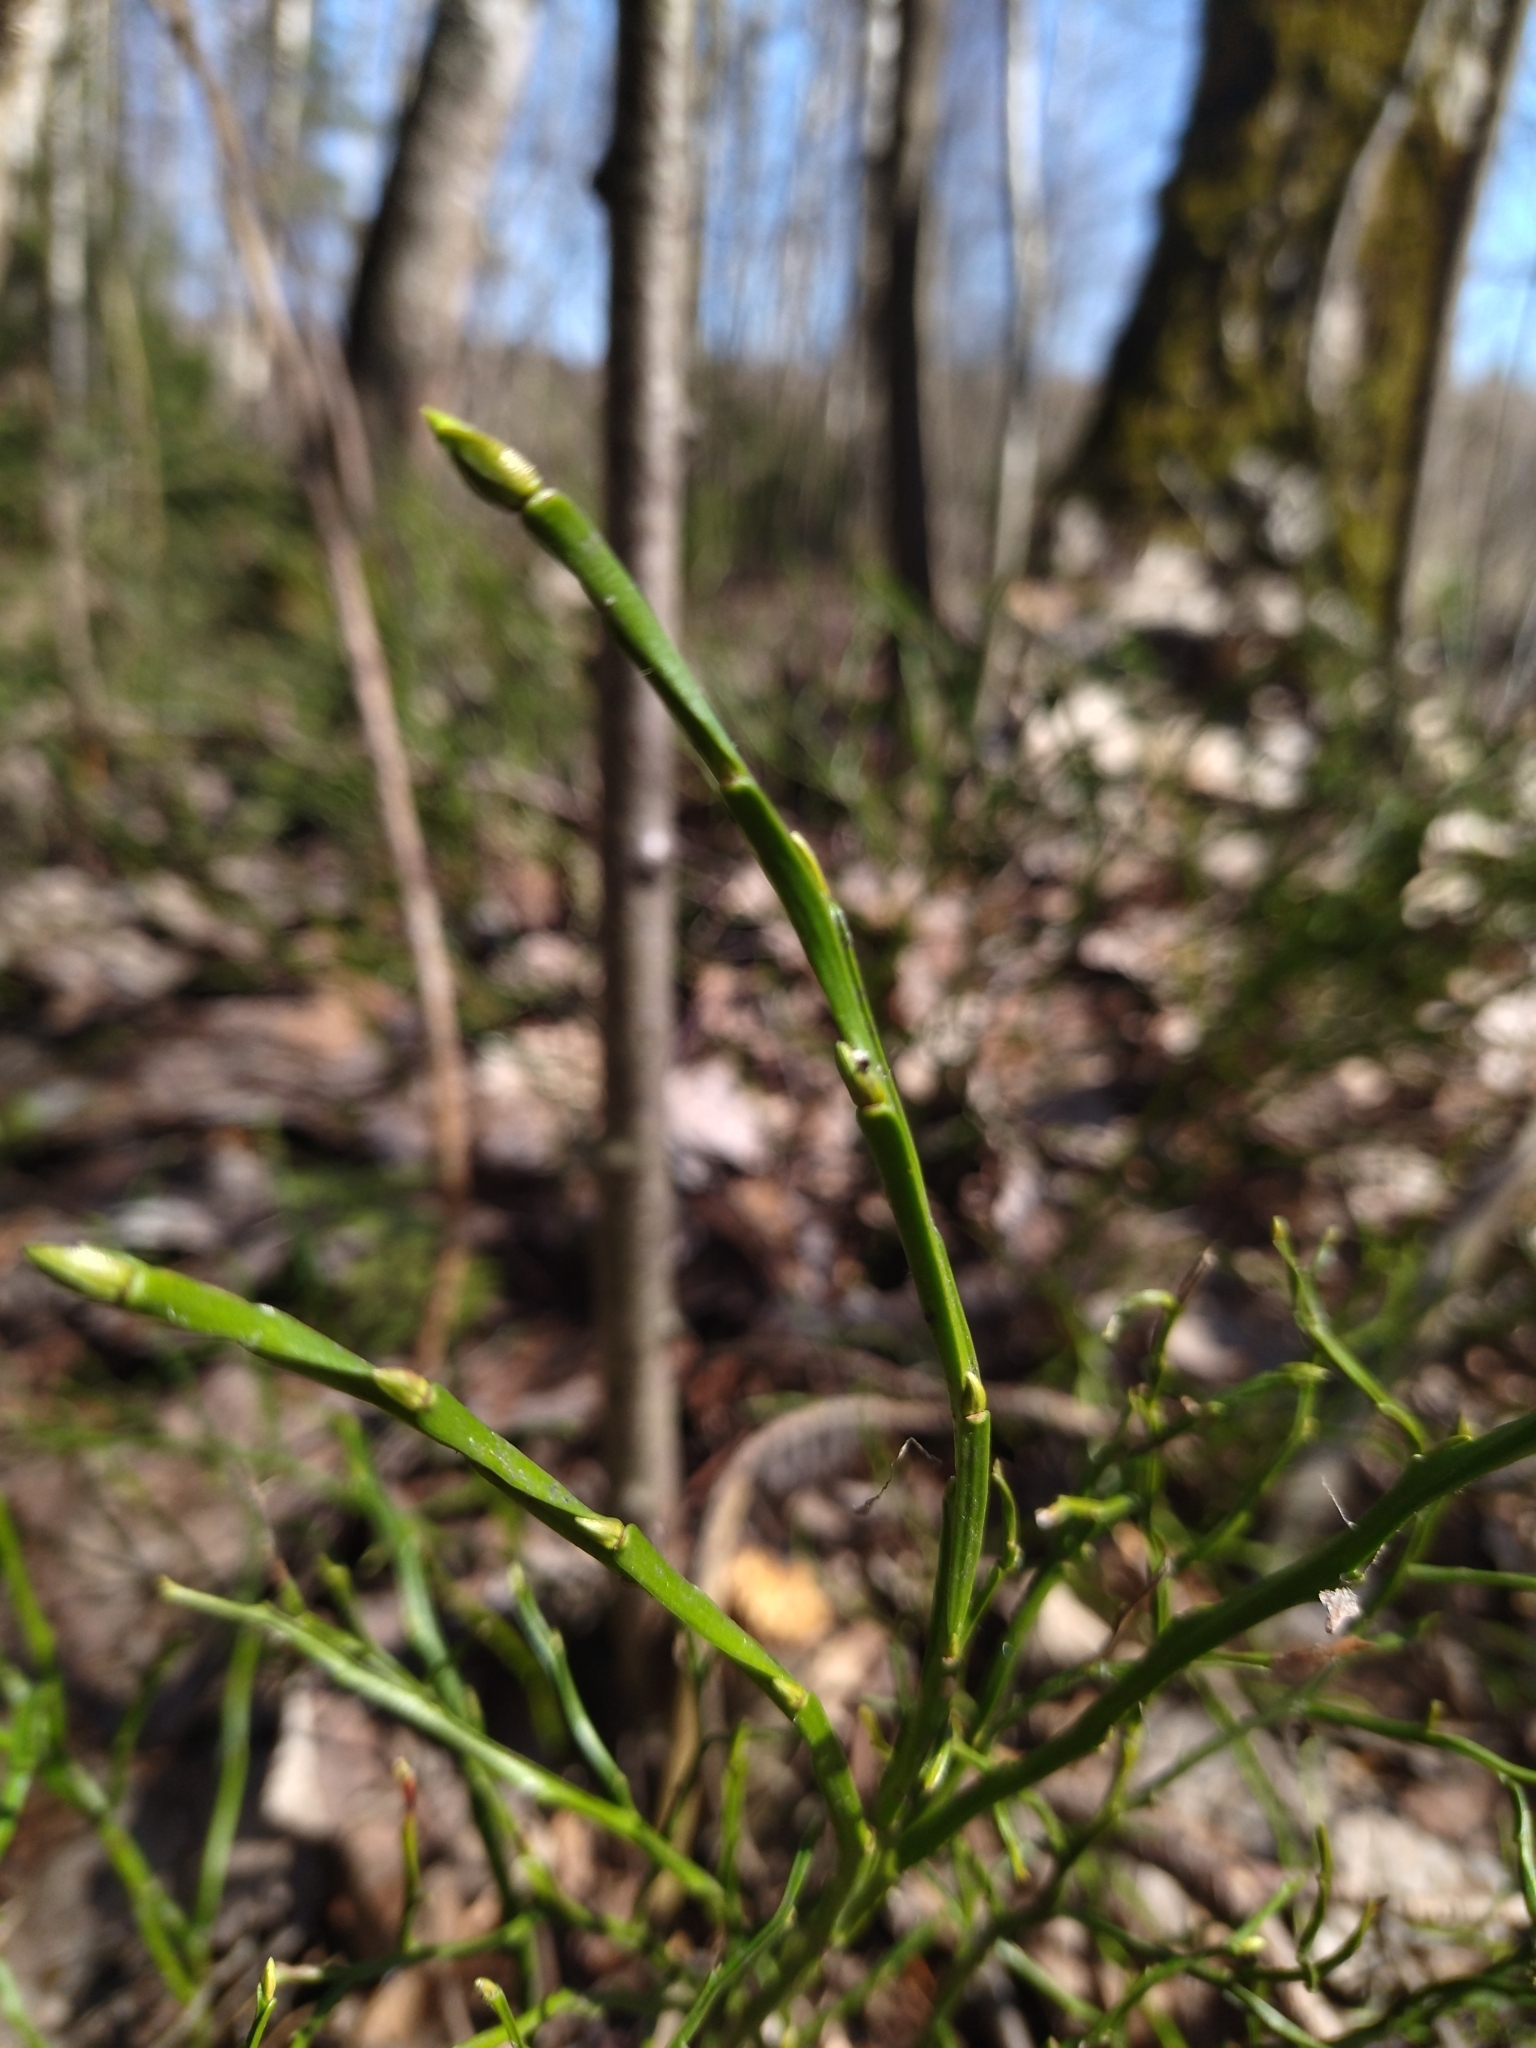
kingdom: Plantae
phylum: Tracheophyta
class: Magnoliopsida
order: Ericales
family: Ericaceae
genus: Vaccinium
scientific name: Vaccinium myrtillus
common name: Bilberry
